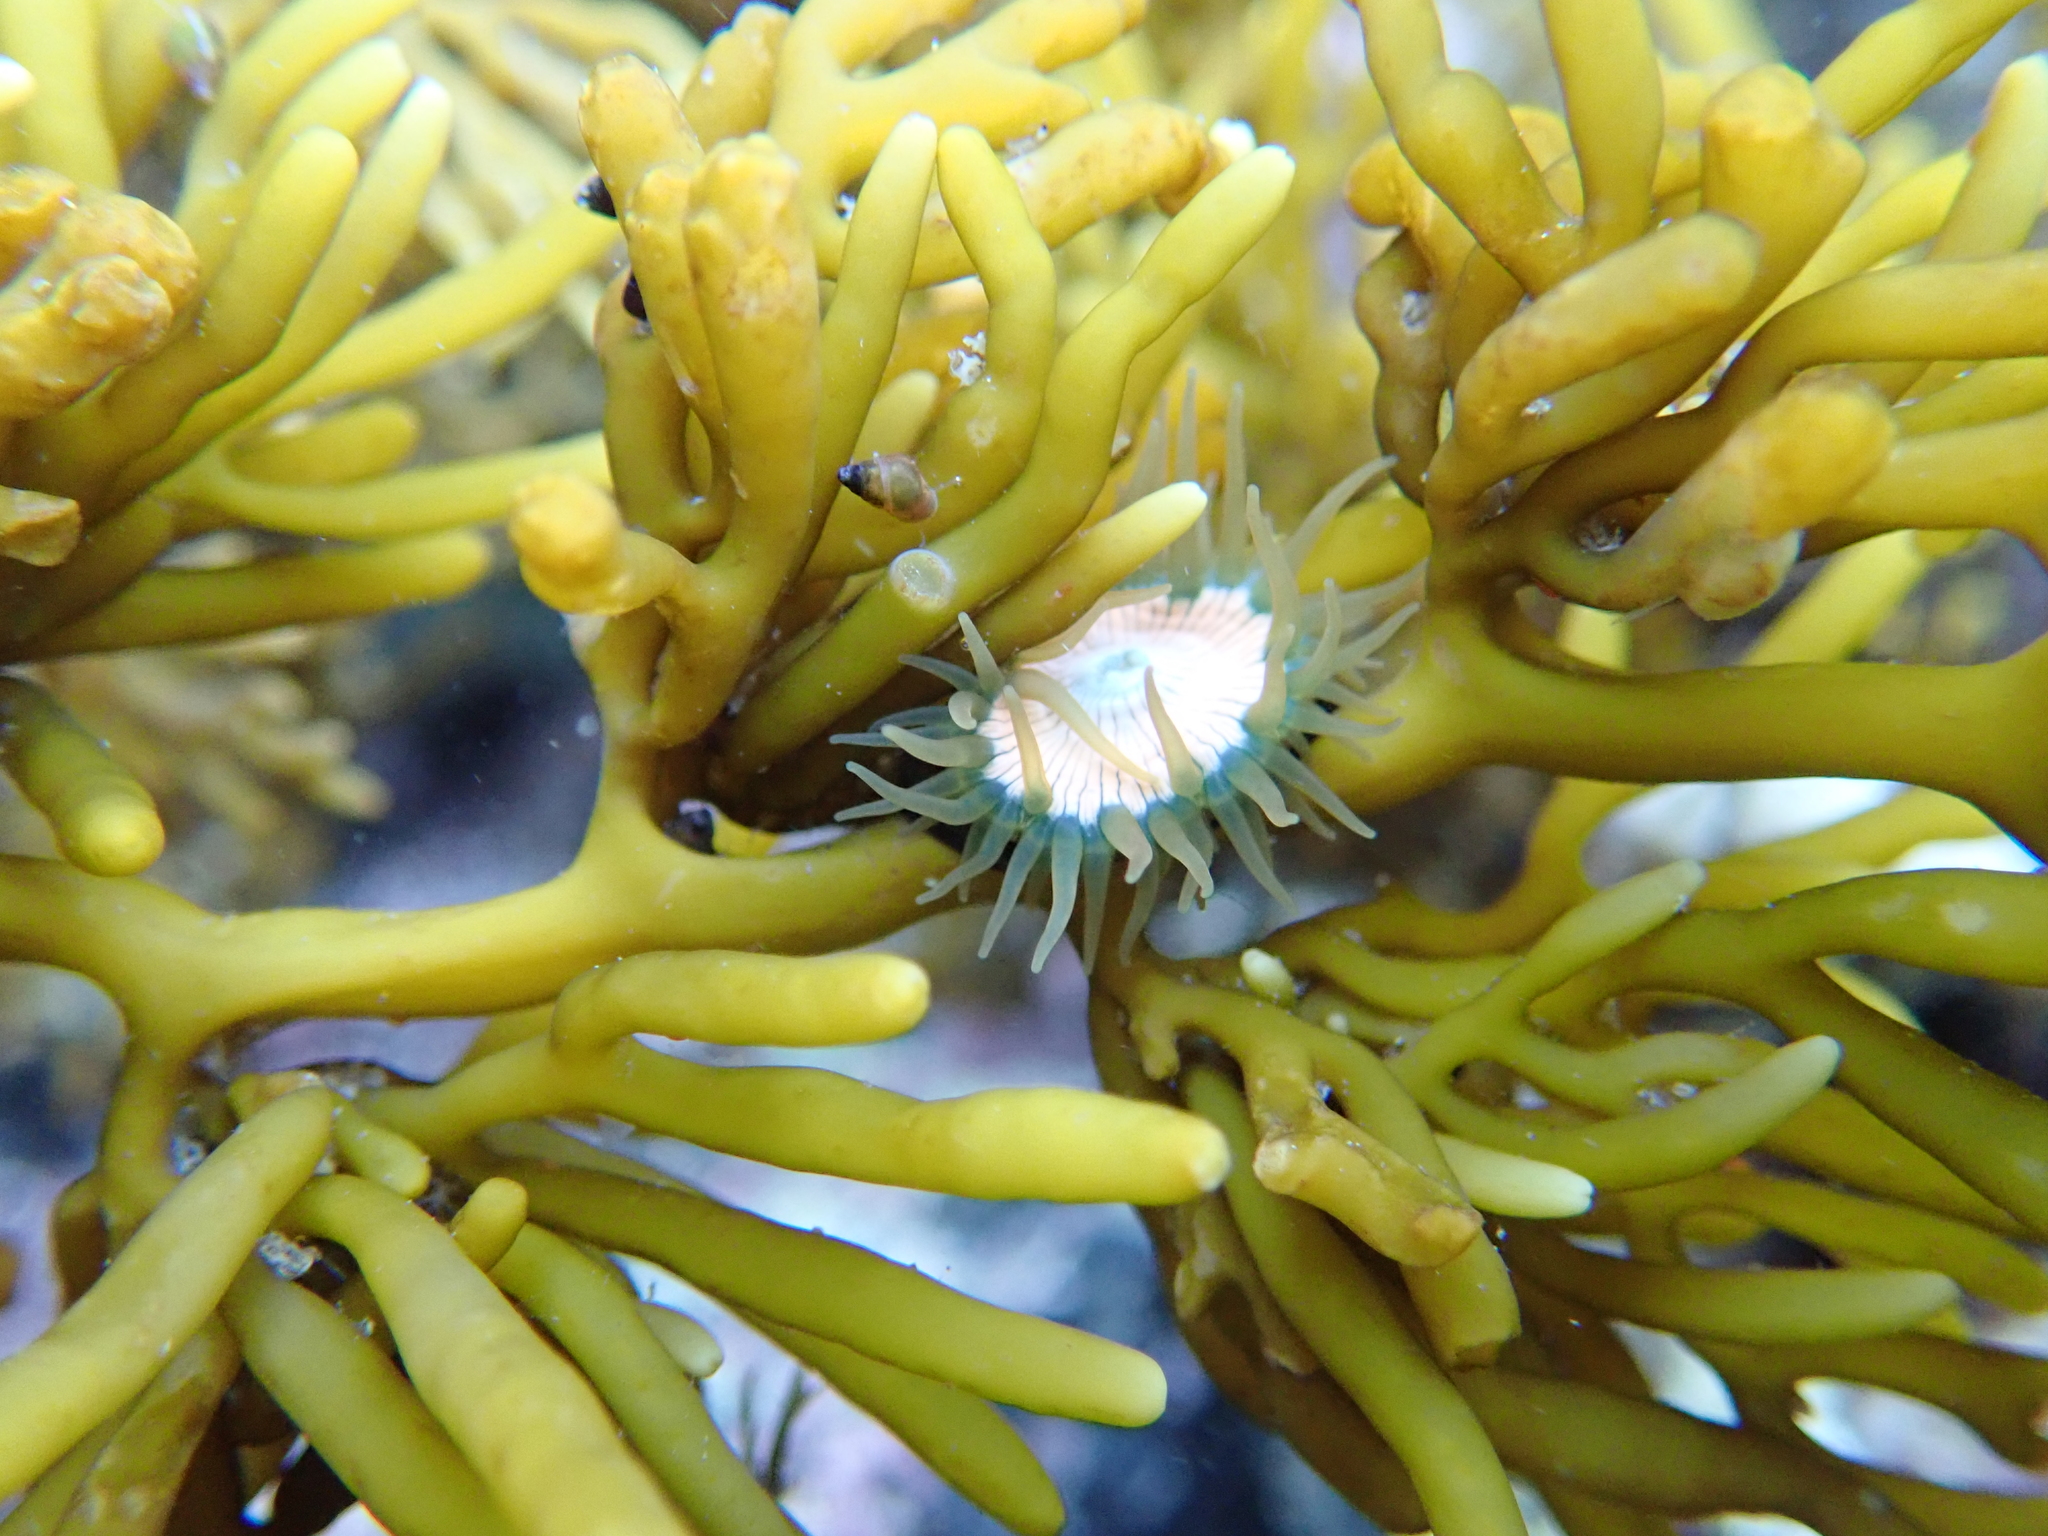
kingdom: Animalia
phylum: Cnidaria
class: Anthozoa
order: Actiniaria
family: Hormathiidae
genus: Handactis
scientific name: Handactis nutrix
